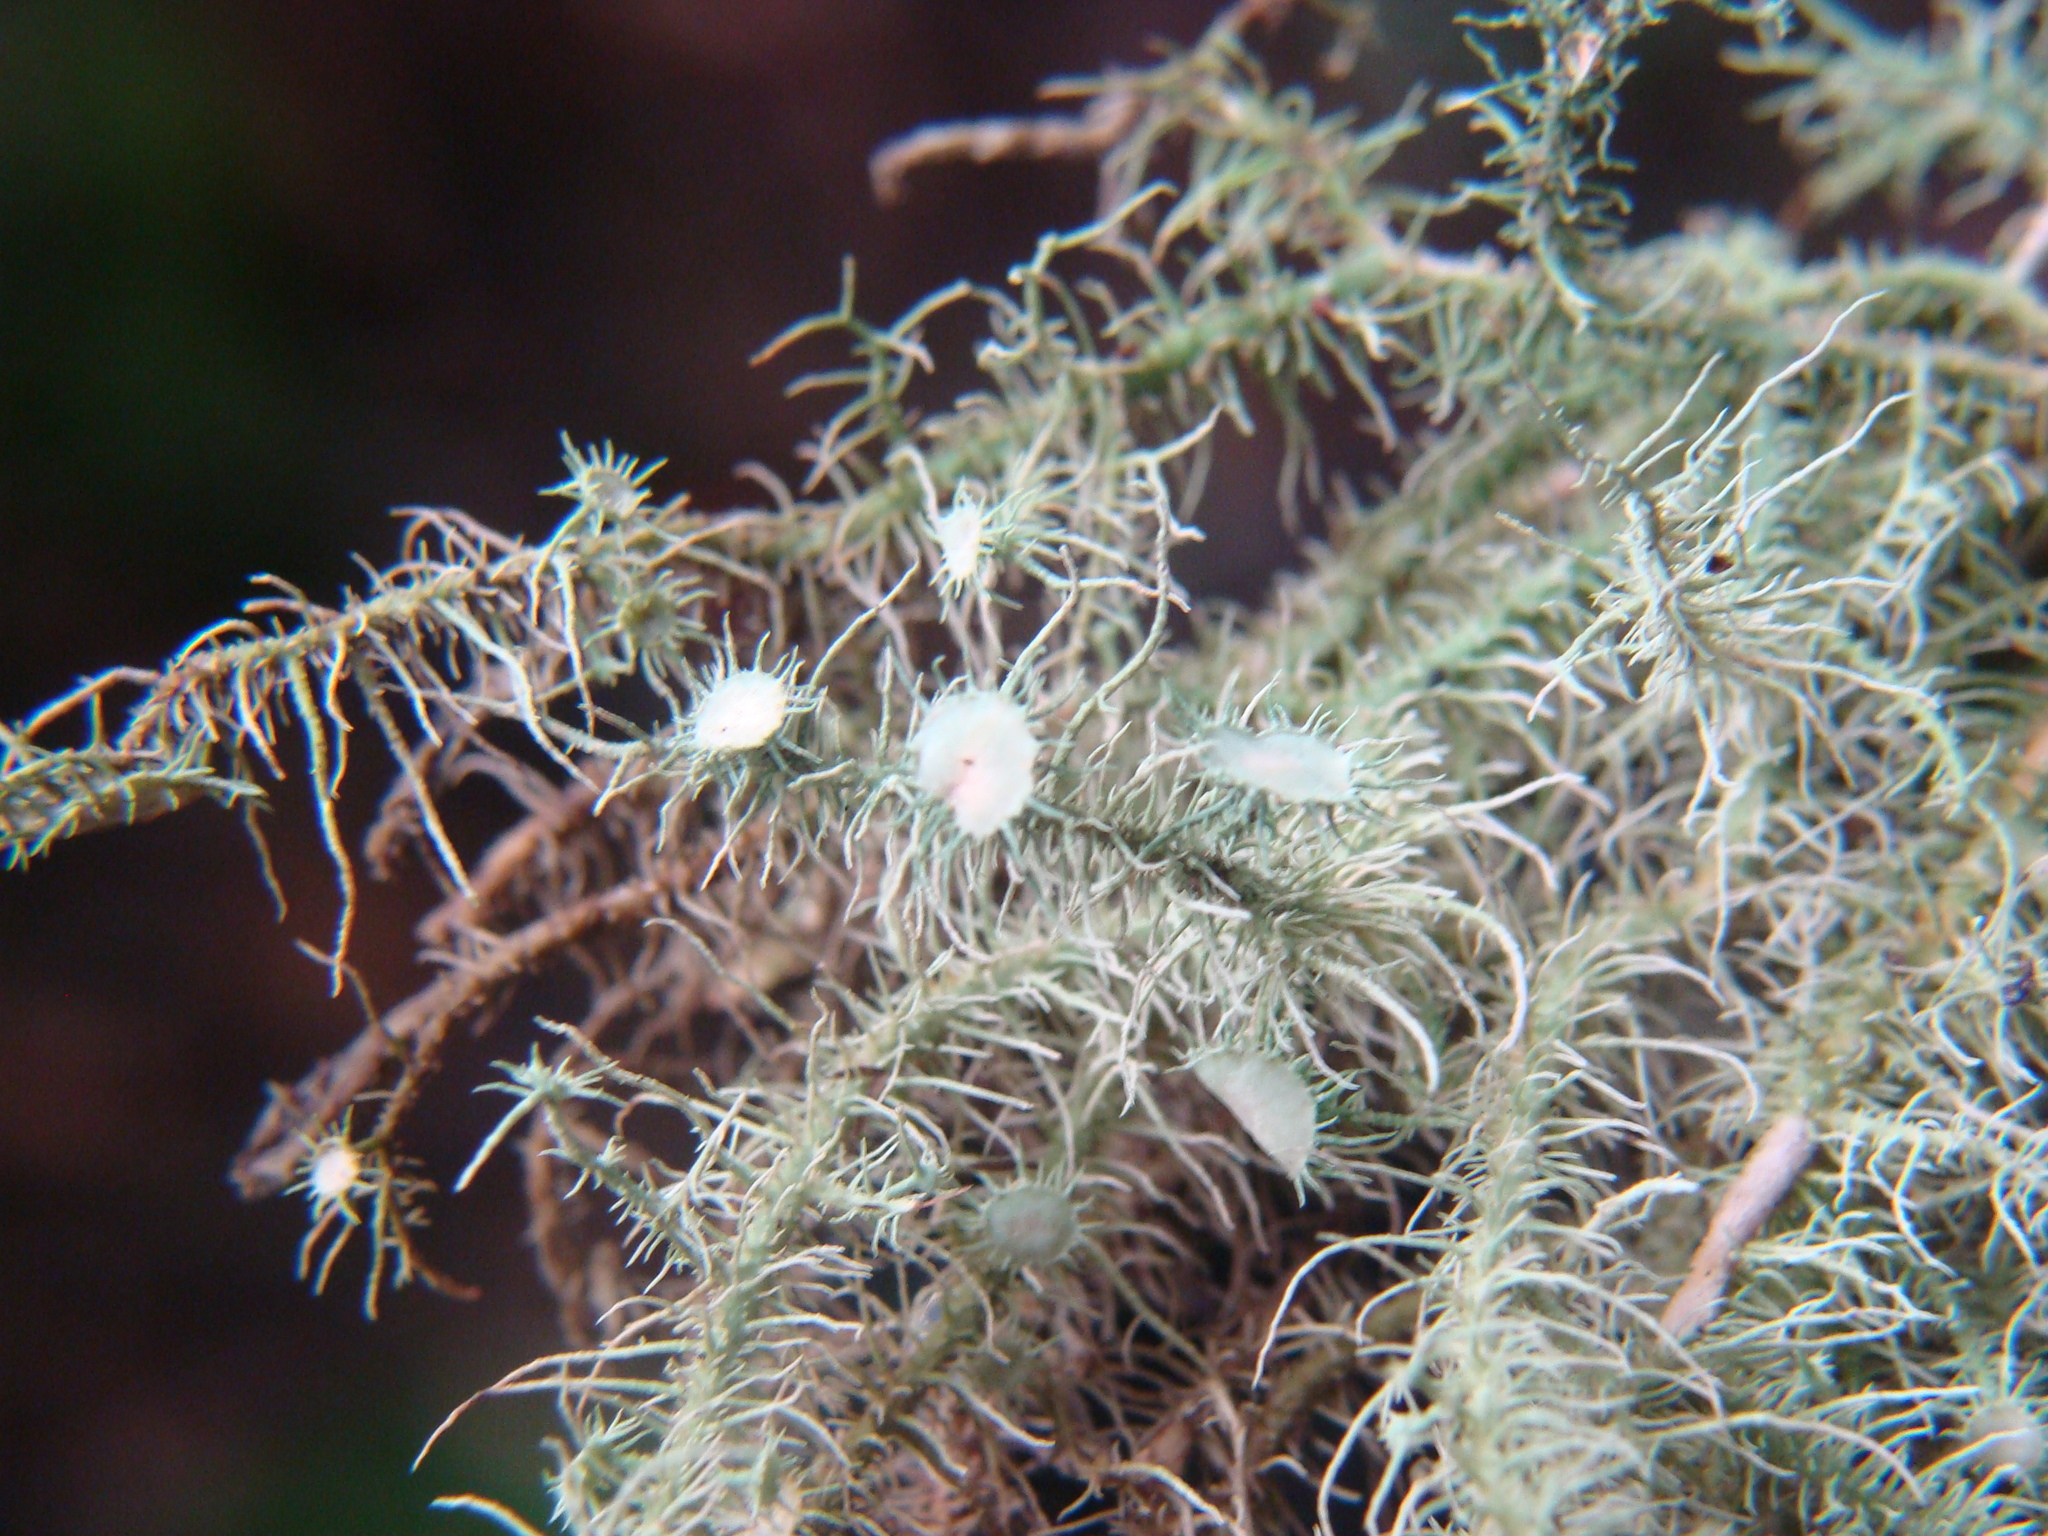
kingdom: Fungi
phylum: Ascomycota
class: Lecanoromycetes
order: Lecanorales
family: Parmeliaceae
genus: Usnea
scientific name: Usnea strigosa
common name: Bushy beard lichen
